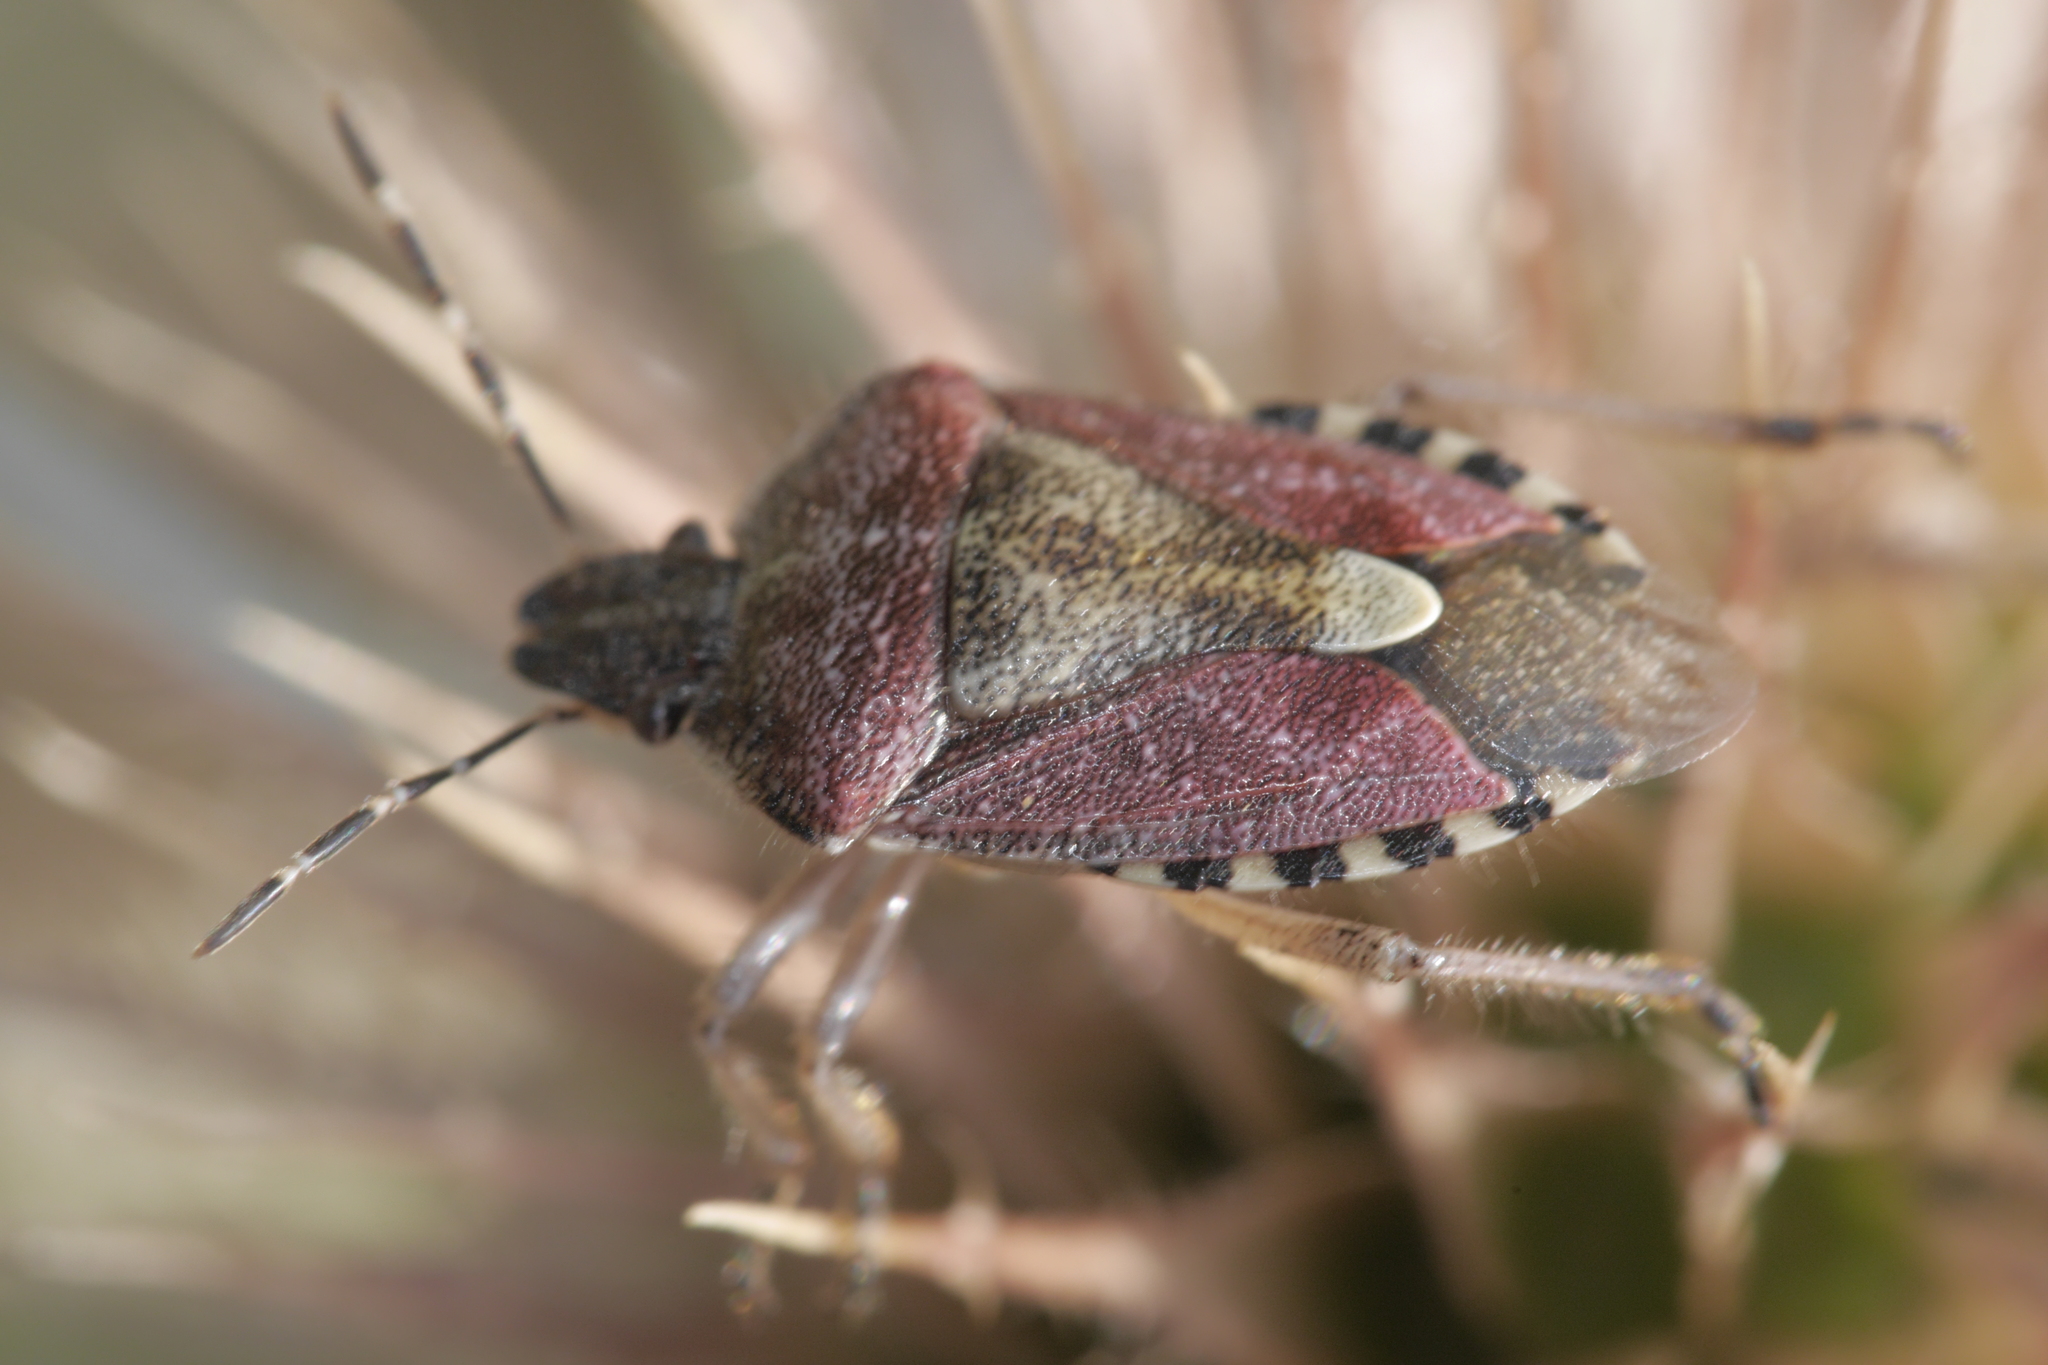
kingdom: Animalia
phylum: Arthropoda
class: Insecta
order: Hemiptera
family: Pentatomidae
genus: Dolycoris
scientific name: Dolycoris baccarum
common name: Sloe bug
